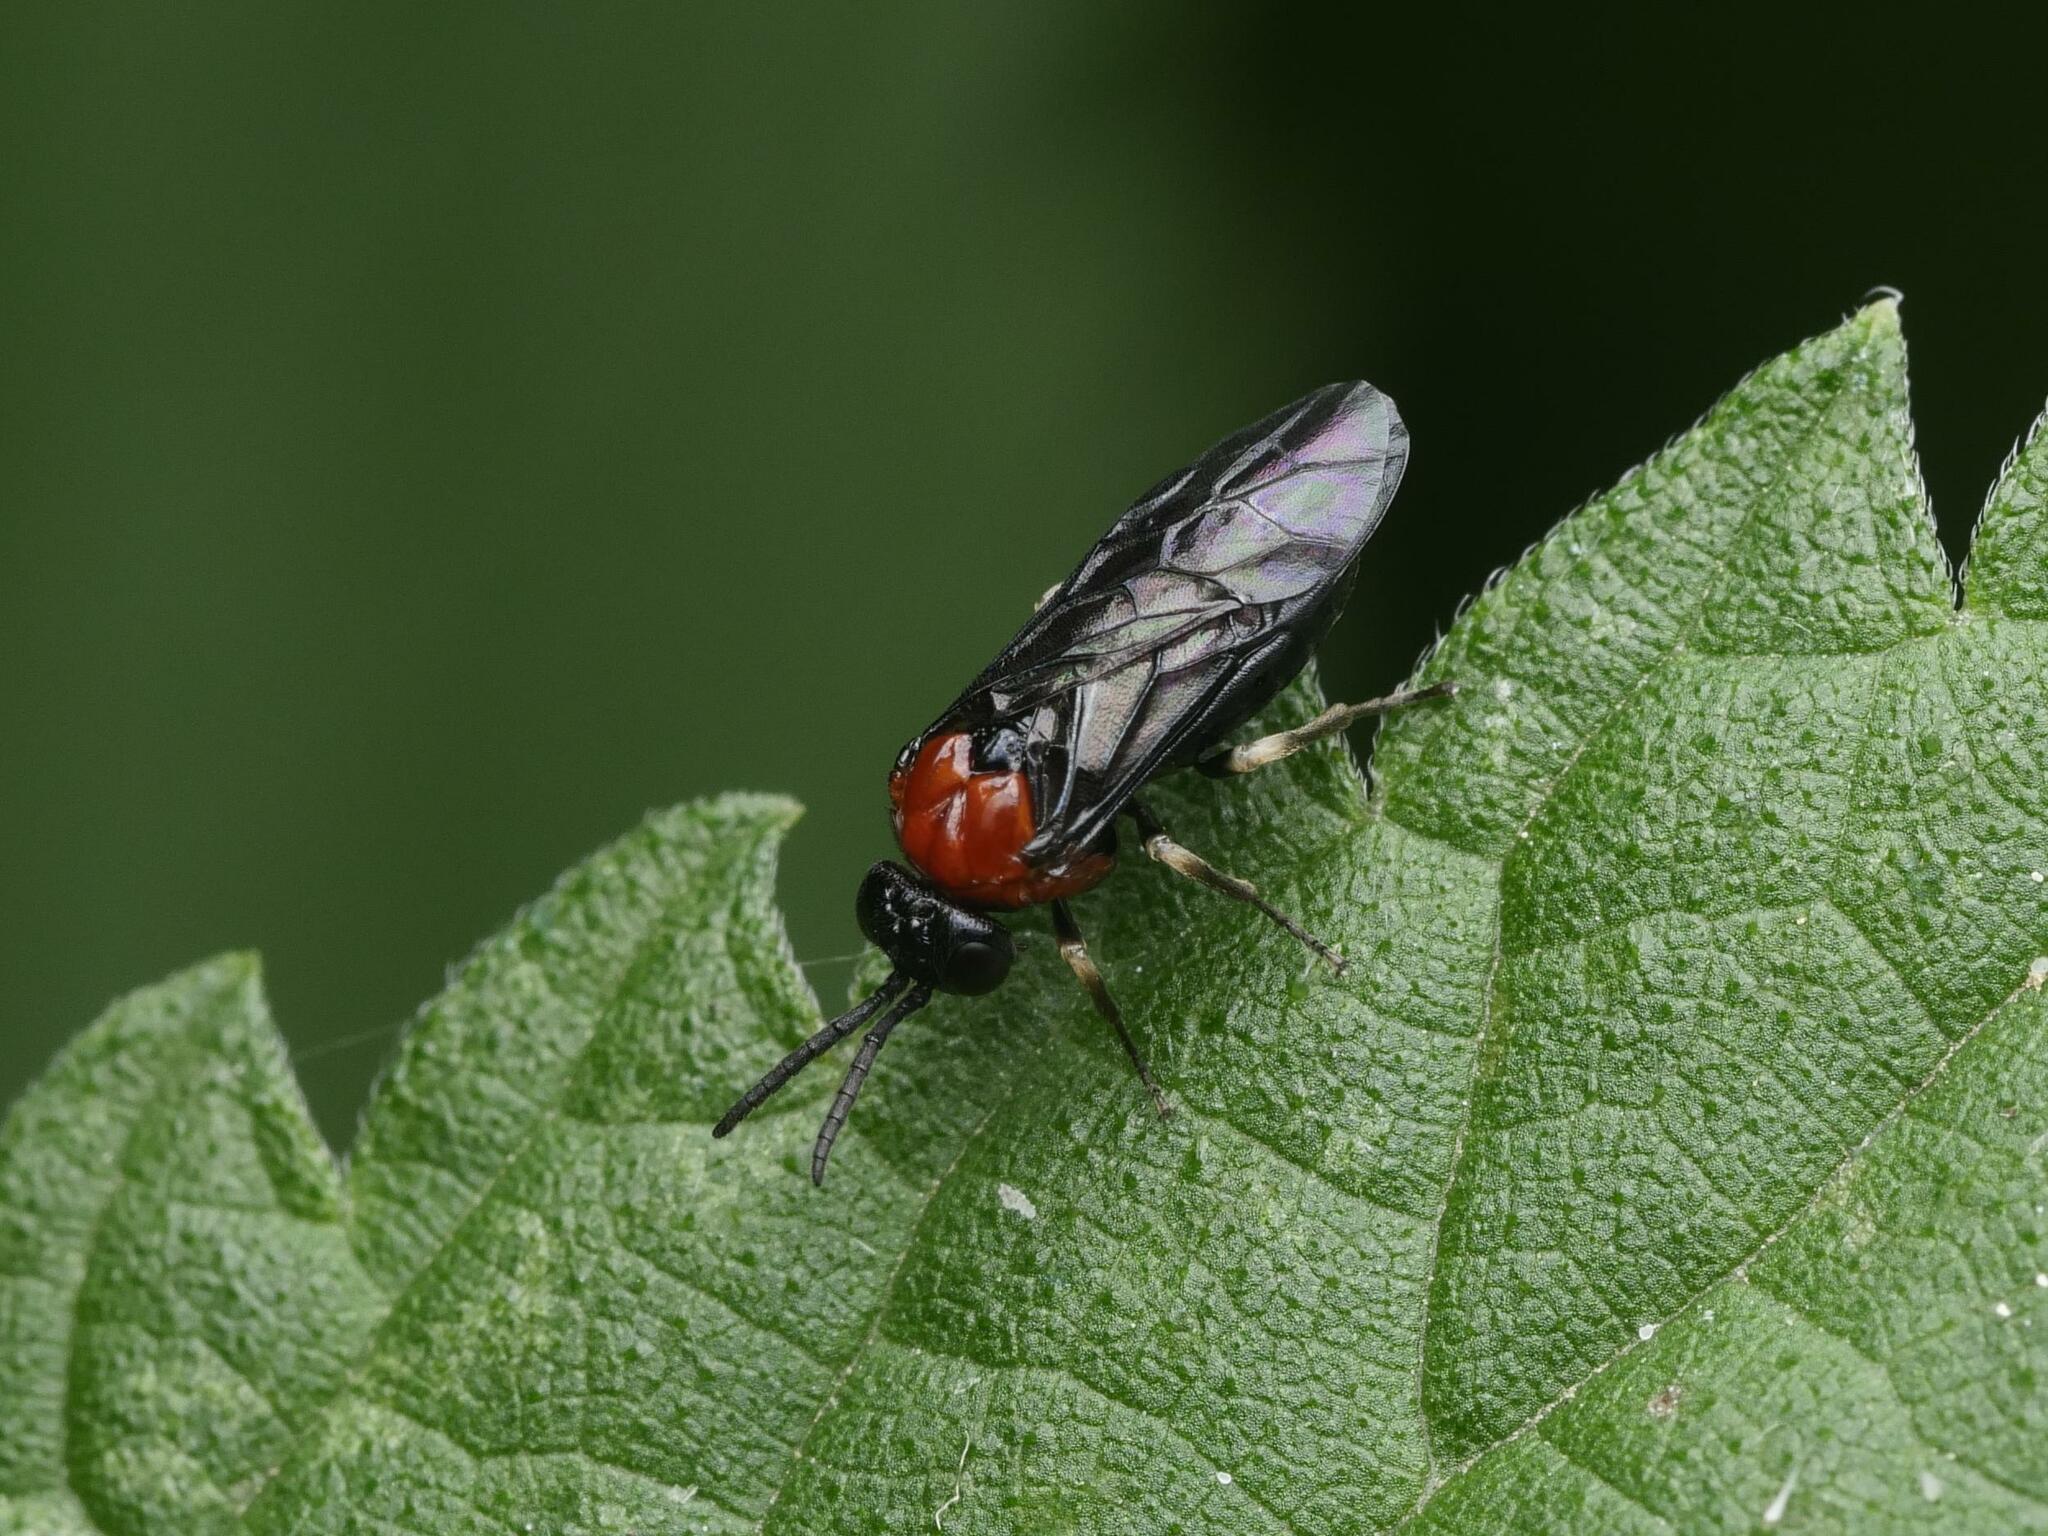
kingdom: Animalia
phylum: Arthropoda
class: Insecta
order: Hymenoptera
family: Tenthredinidae
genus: Eutomostethus
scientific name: Eutomostethus ephippium
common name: Tenthredid wasp
